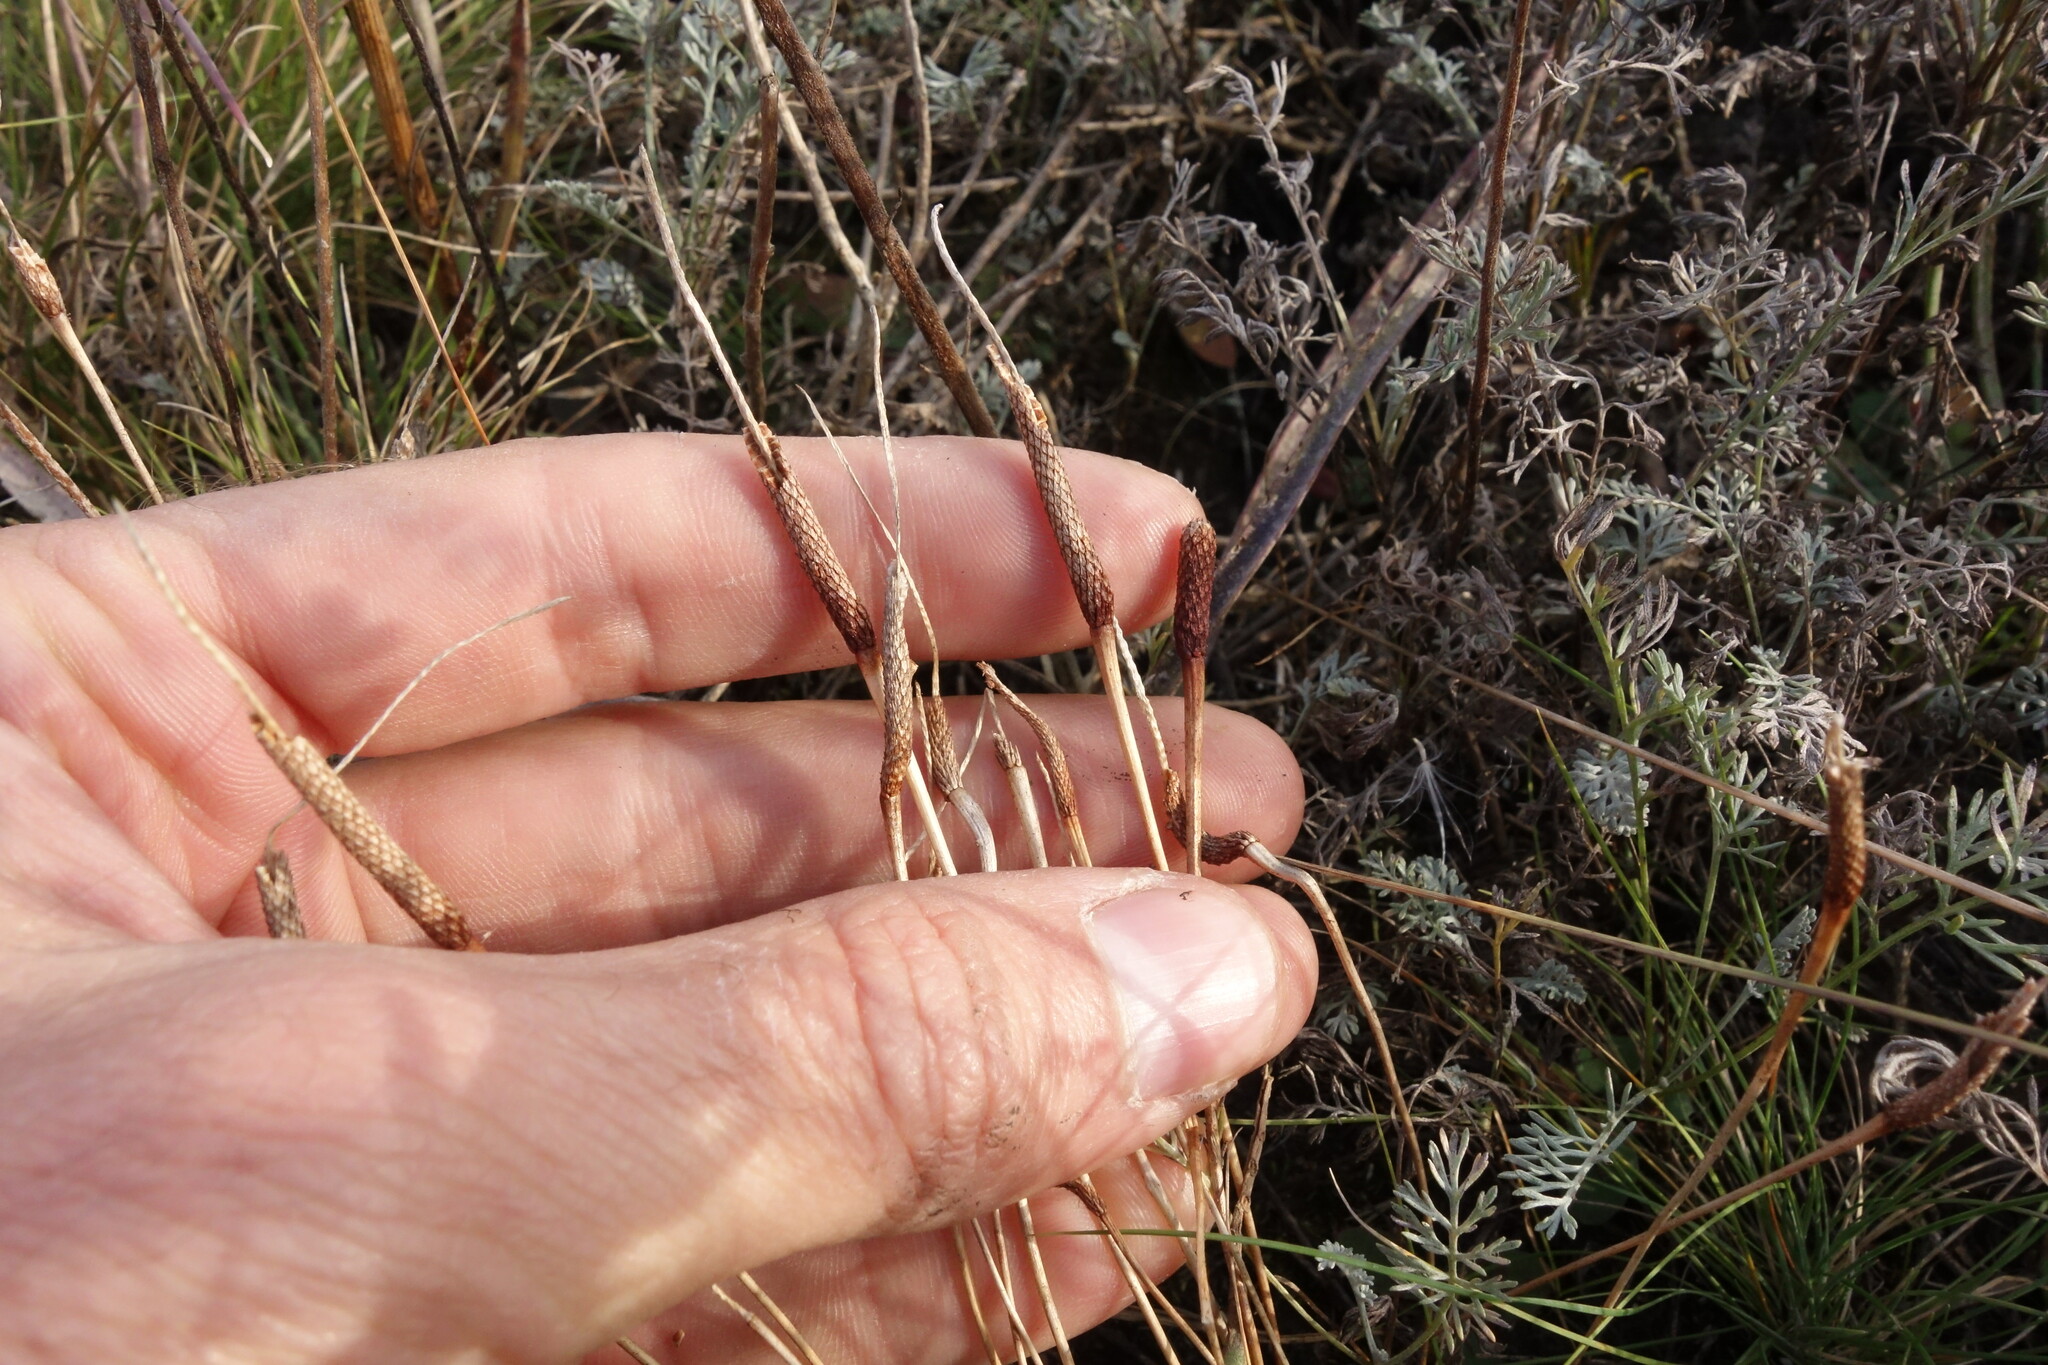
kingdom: Plantae
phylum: Tracheophyta
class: Magnoliopsida
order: Ranunculales
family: Ranunculaceae
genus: Myosurus
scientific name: Myosurus minimus
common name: Mousetail
